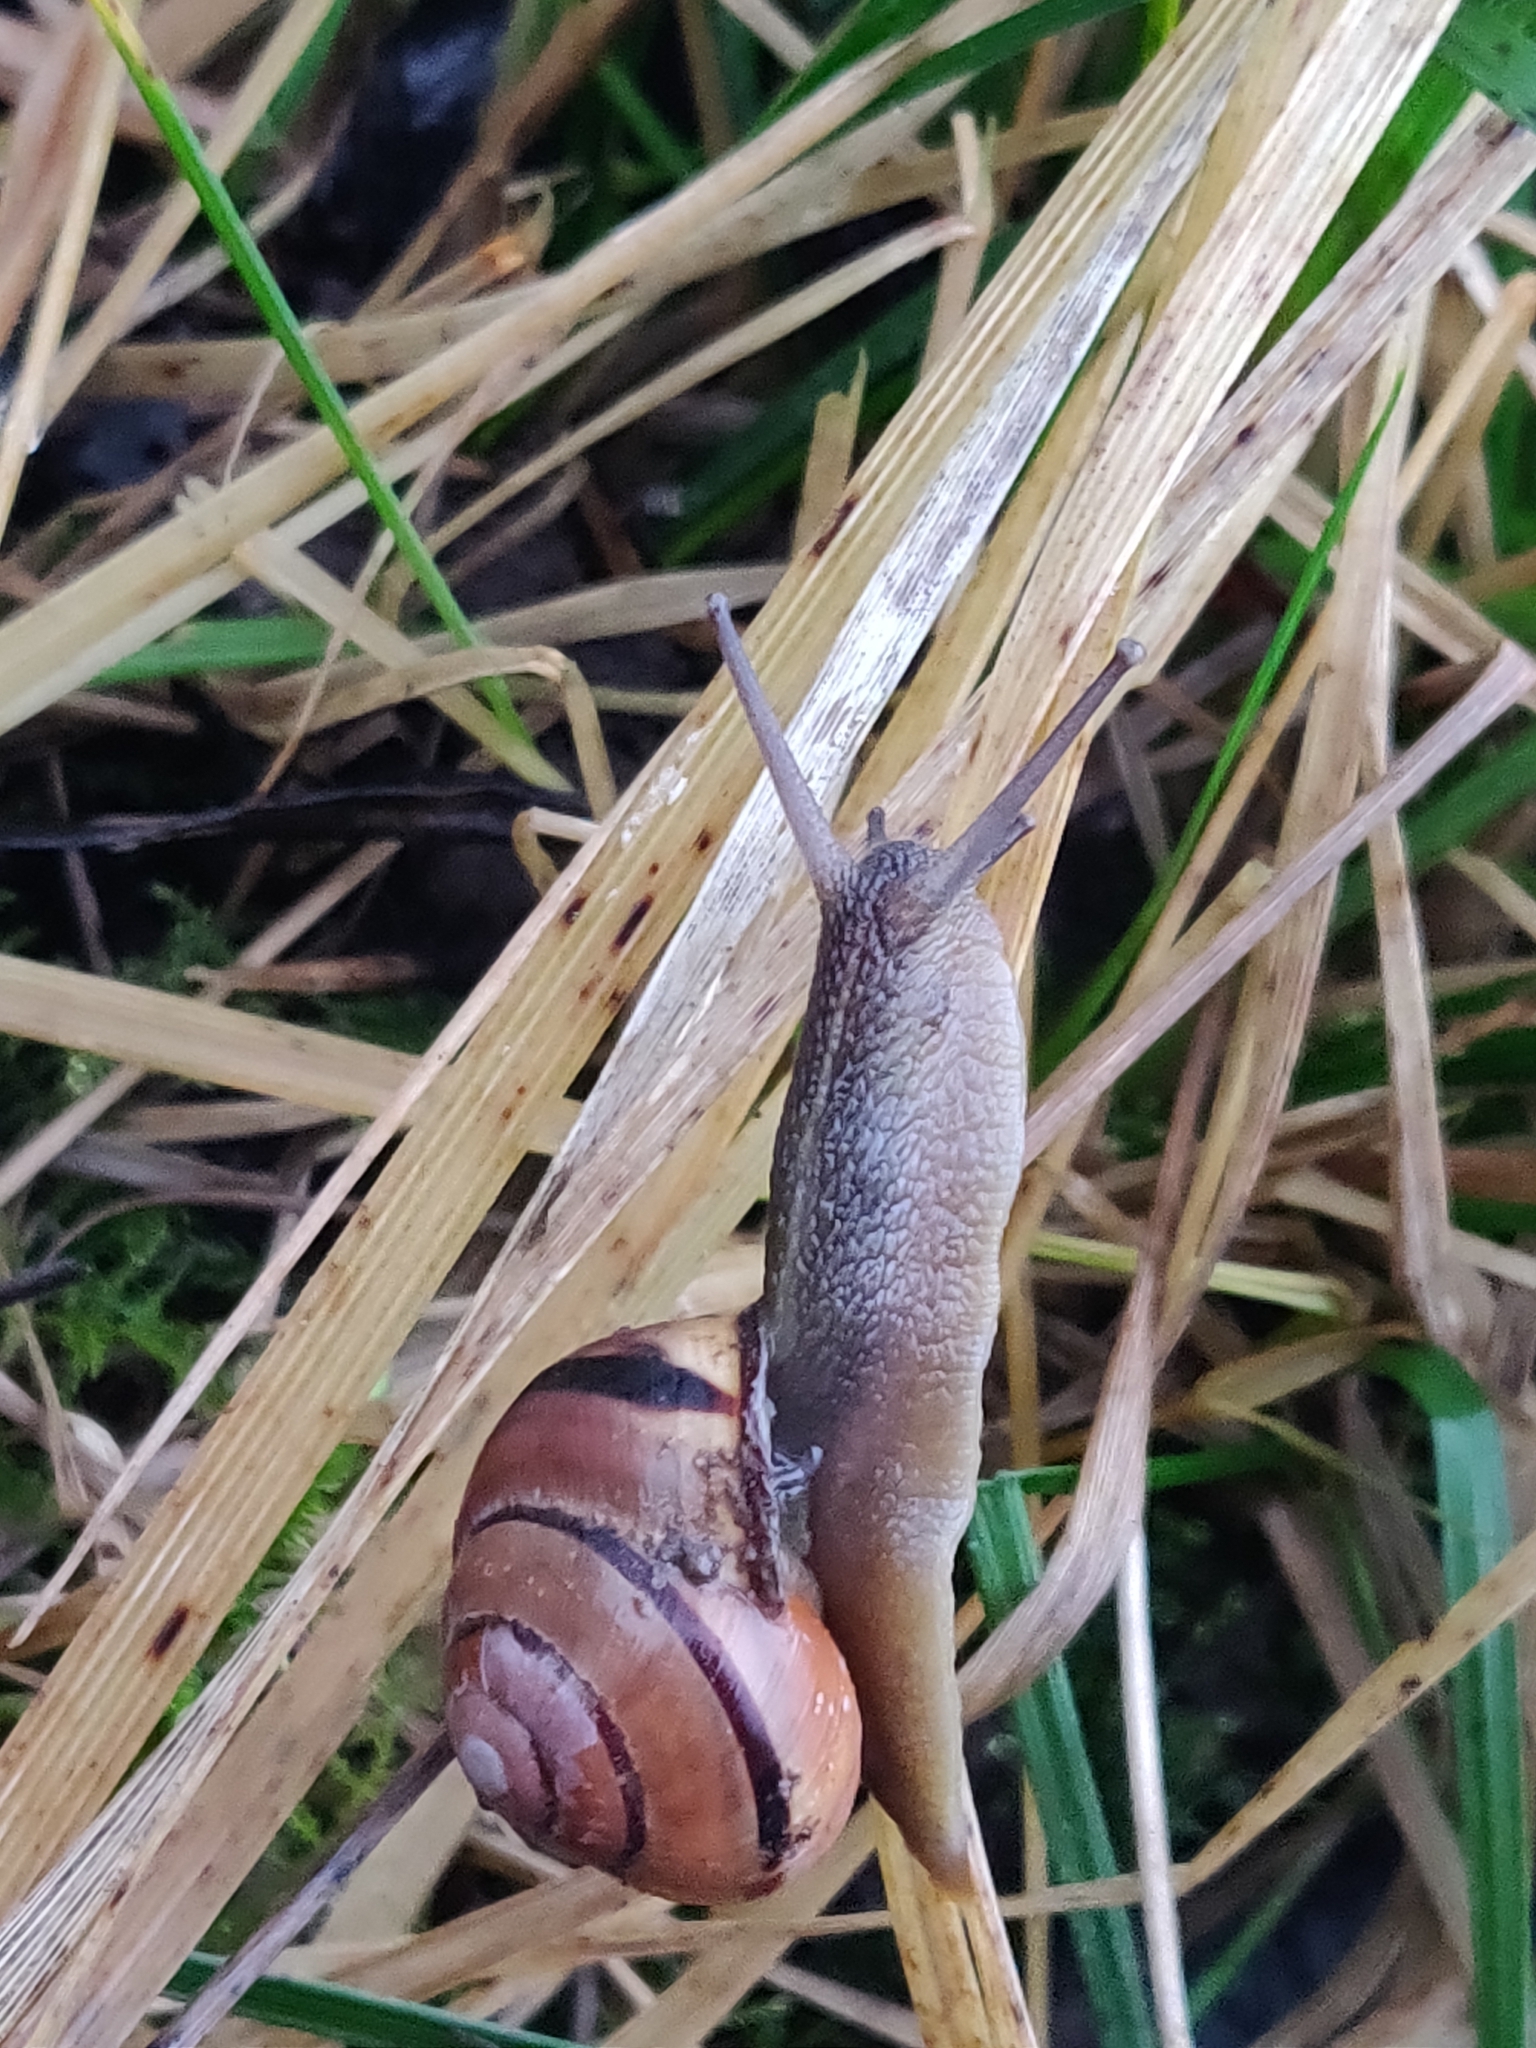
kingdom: Animalia
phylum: Mollusca
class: Gastropoda
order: Stylommatophora
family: Helicidae
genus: Cepaea
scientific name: Cepaea nemoralis
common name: Grovesnail
